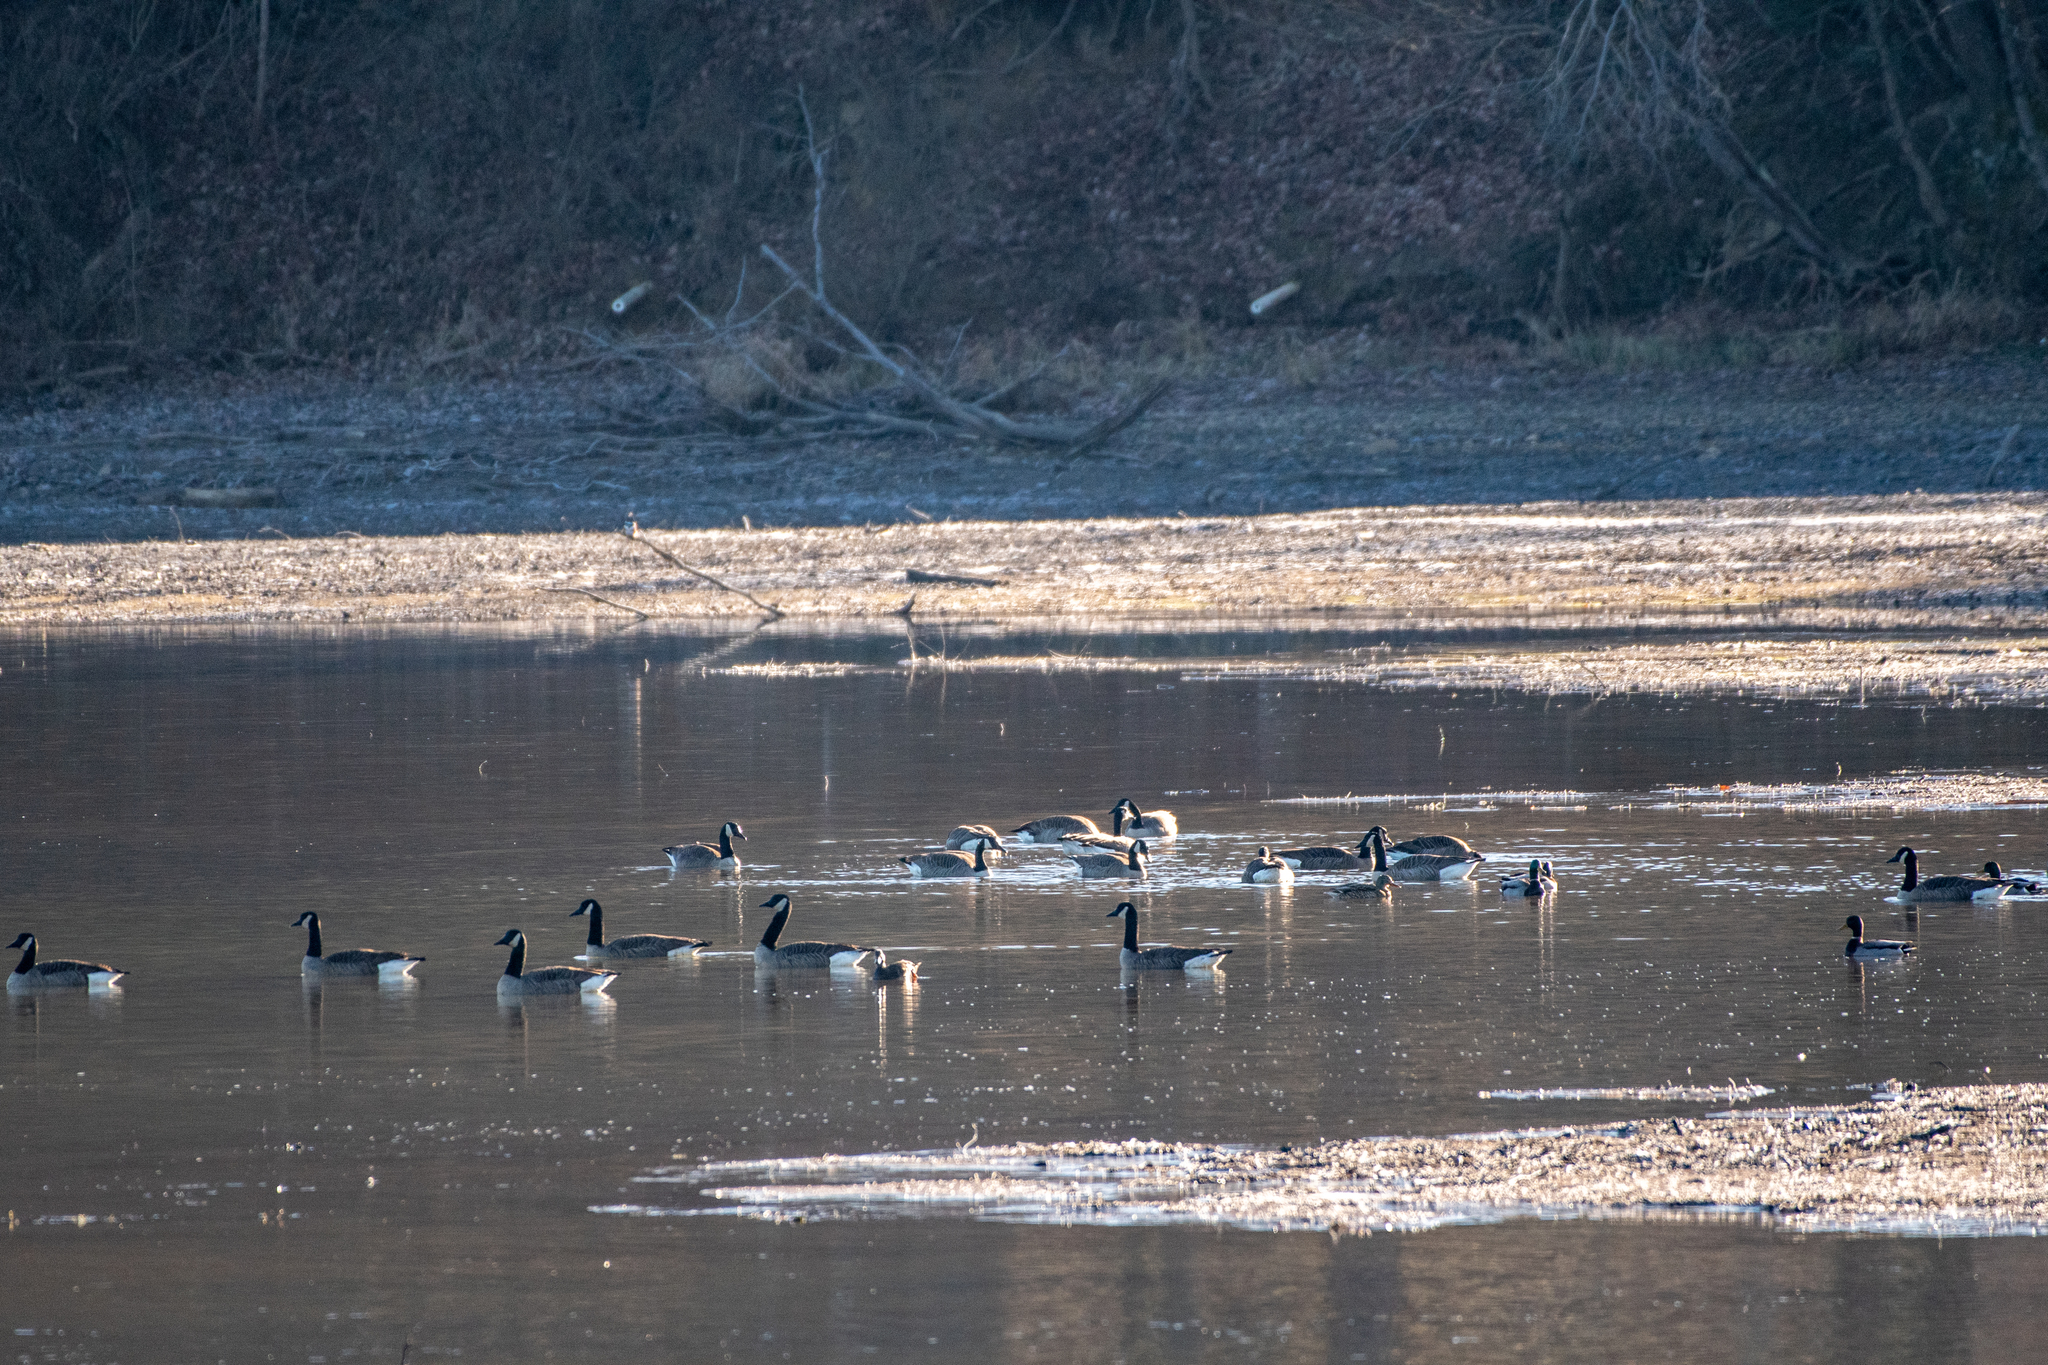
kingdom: Animalia
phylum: Chordata
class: Aves
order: Anseriformes
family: Anatidae
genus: Branta
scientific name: Branta canadensis
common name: Canada goose
